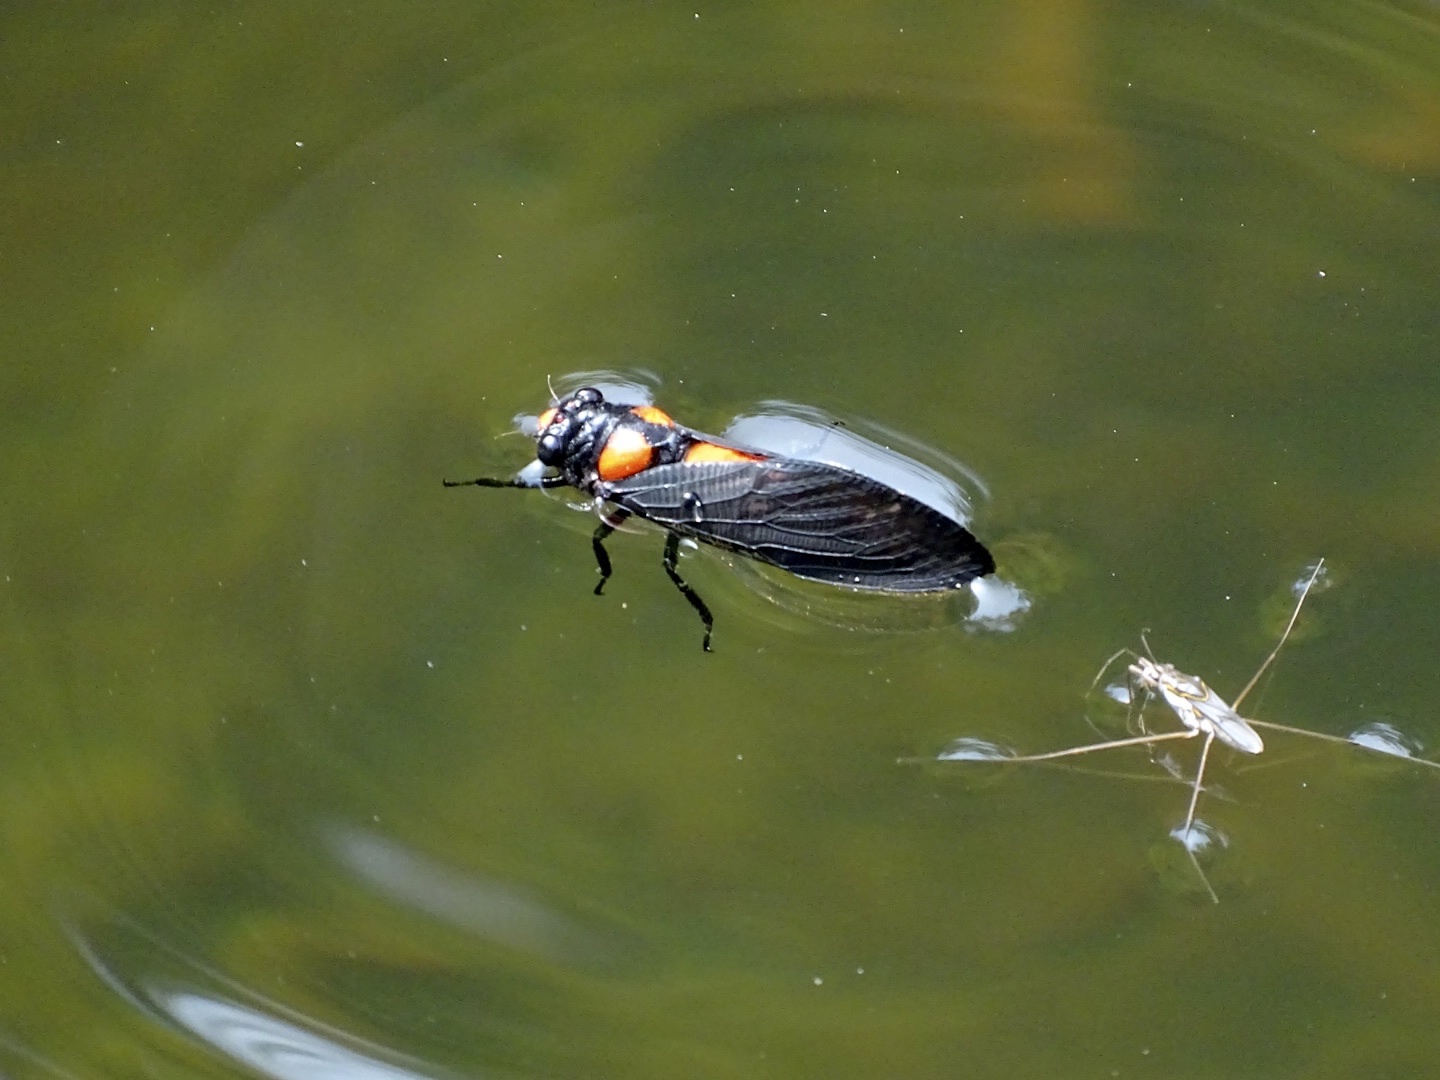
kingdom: Animalia
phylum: Arthropoda
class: Insecta
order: Hemiptera
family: Cicadidae
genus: Huechys
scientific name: Huechys sanguinea
